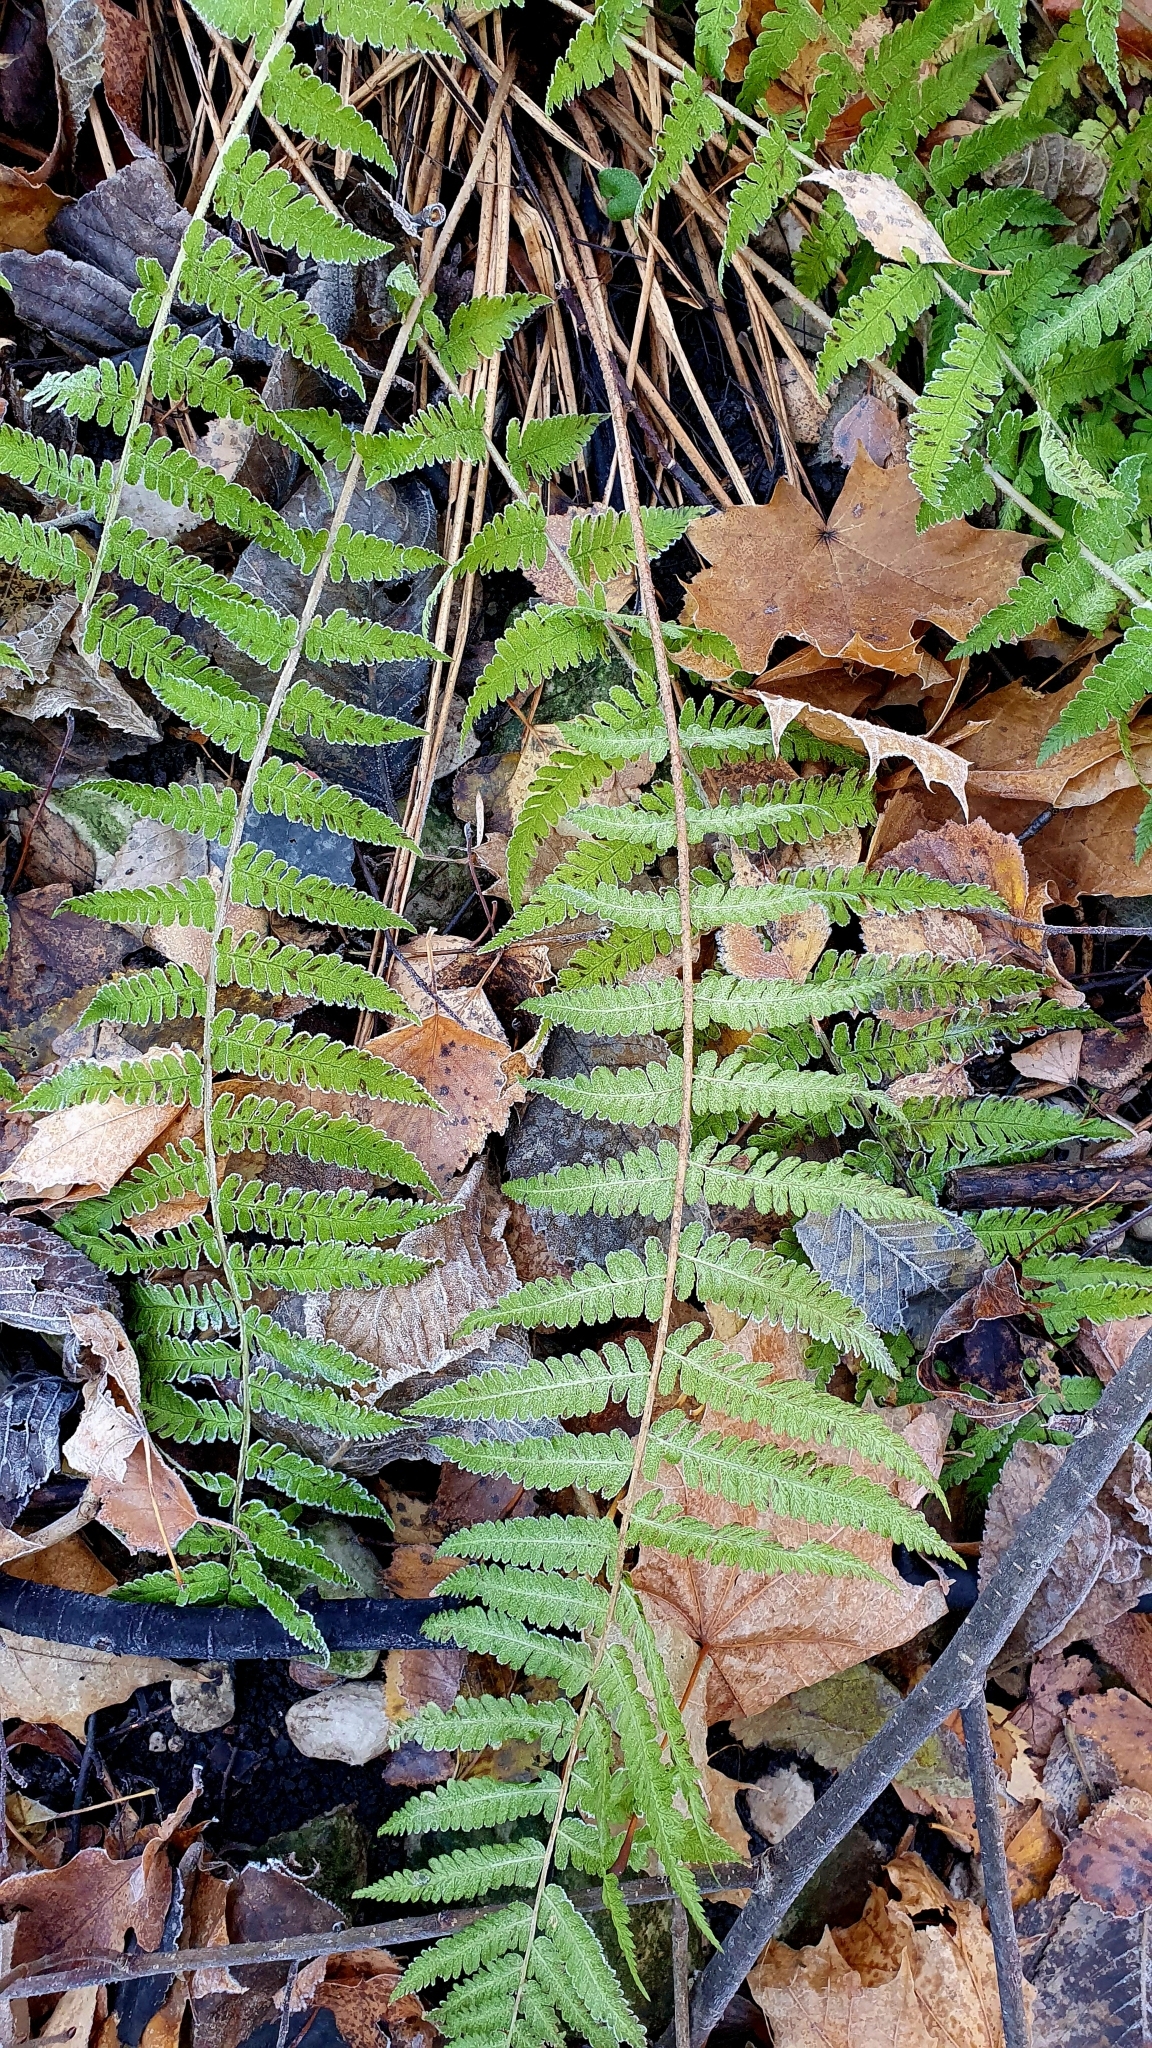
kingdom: Plantae
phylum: Tracheophyta
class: Polypodiopsida
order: Polypodiales
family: Dryopteridaceae
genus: Dryopteris
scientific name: Dryopteris filix-mas
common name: Male fern
